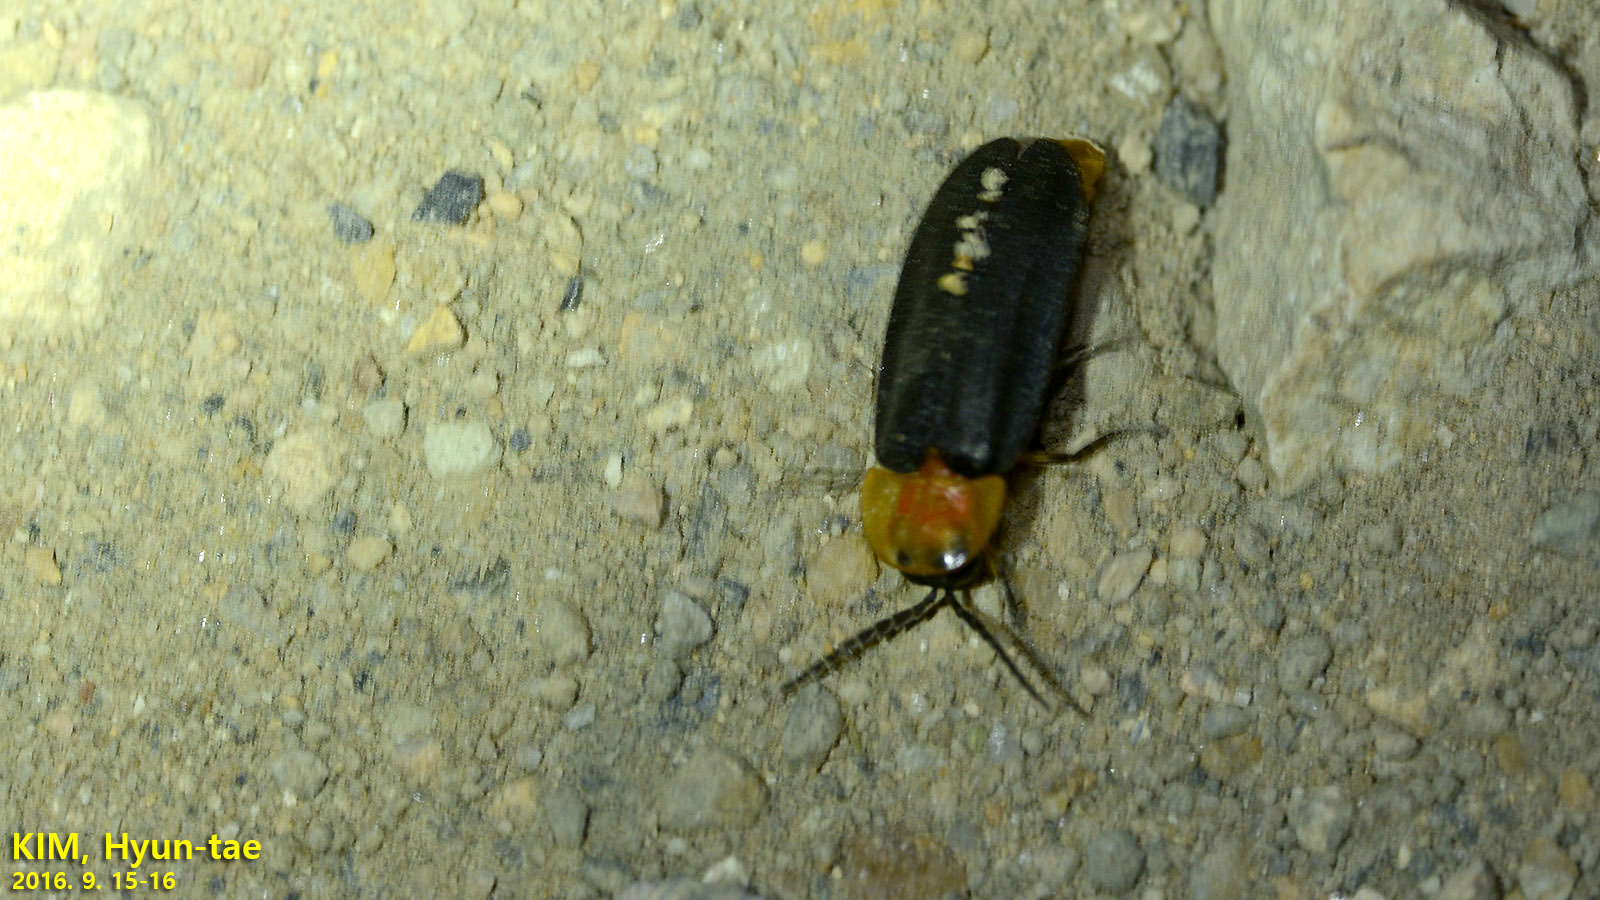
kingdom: Animalia
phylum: Arthropoda
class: Insecta
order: Coleoptera
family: Lampyridae
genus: Pyrocoelia
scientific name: Pyrocoelia rufa
